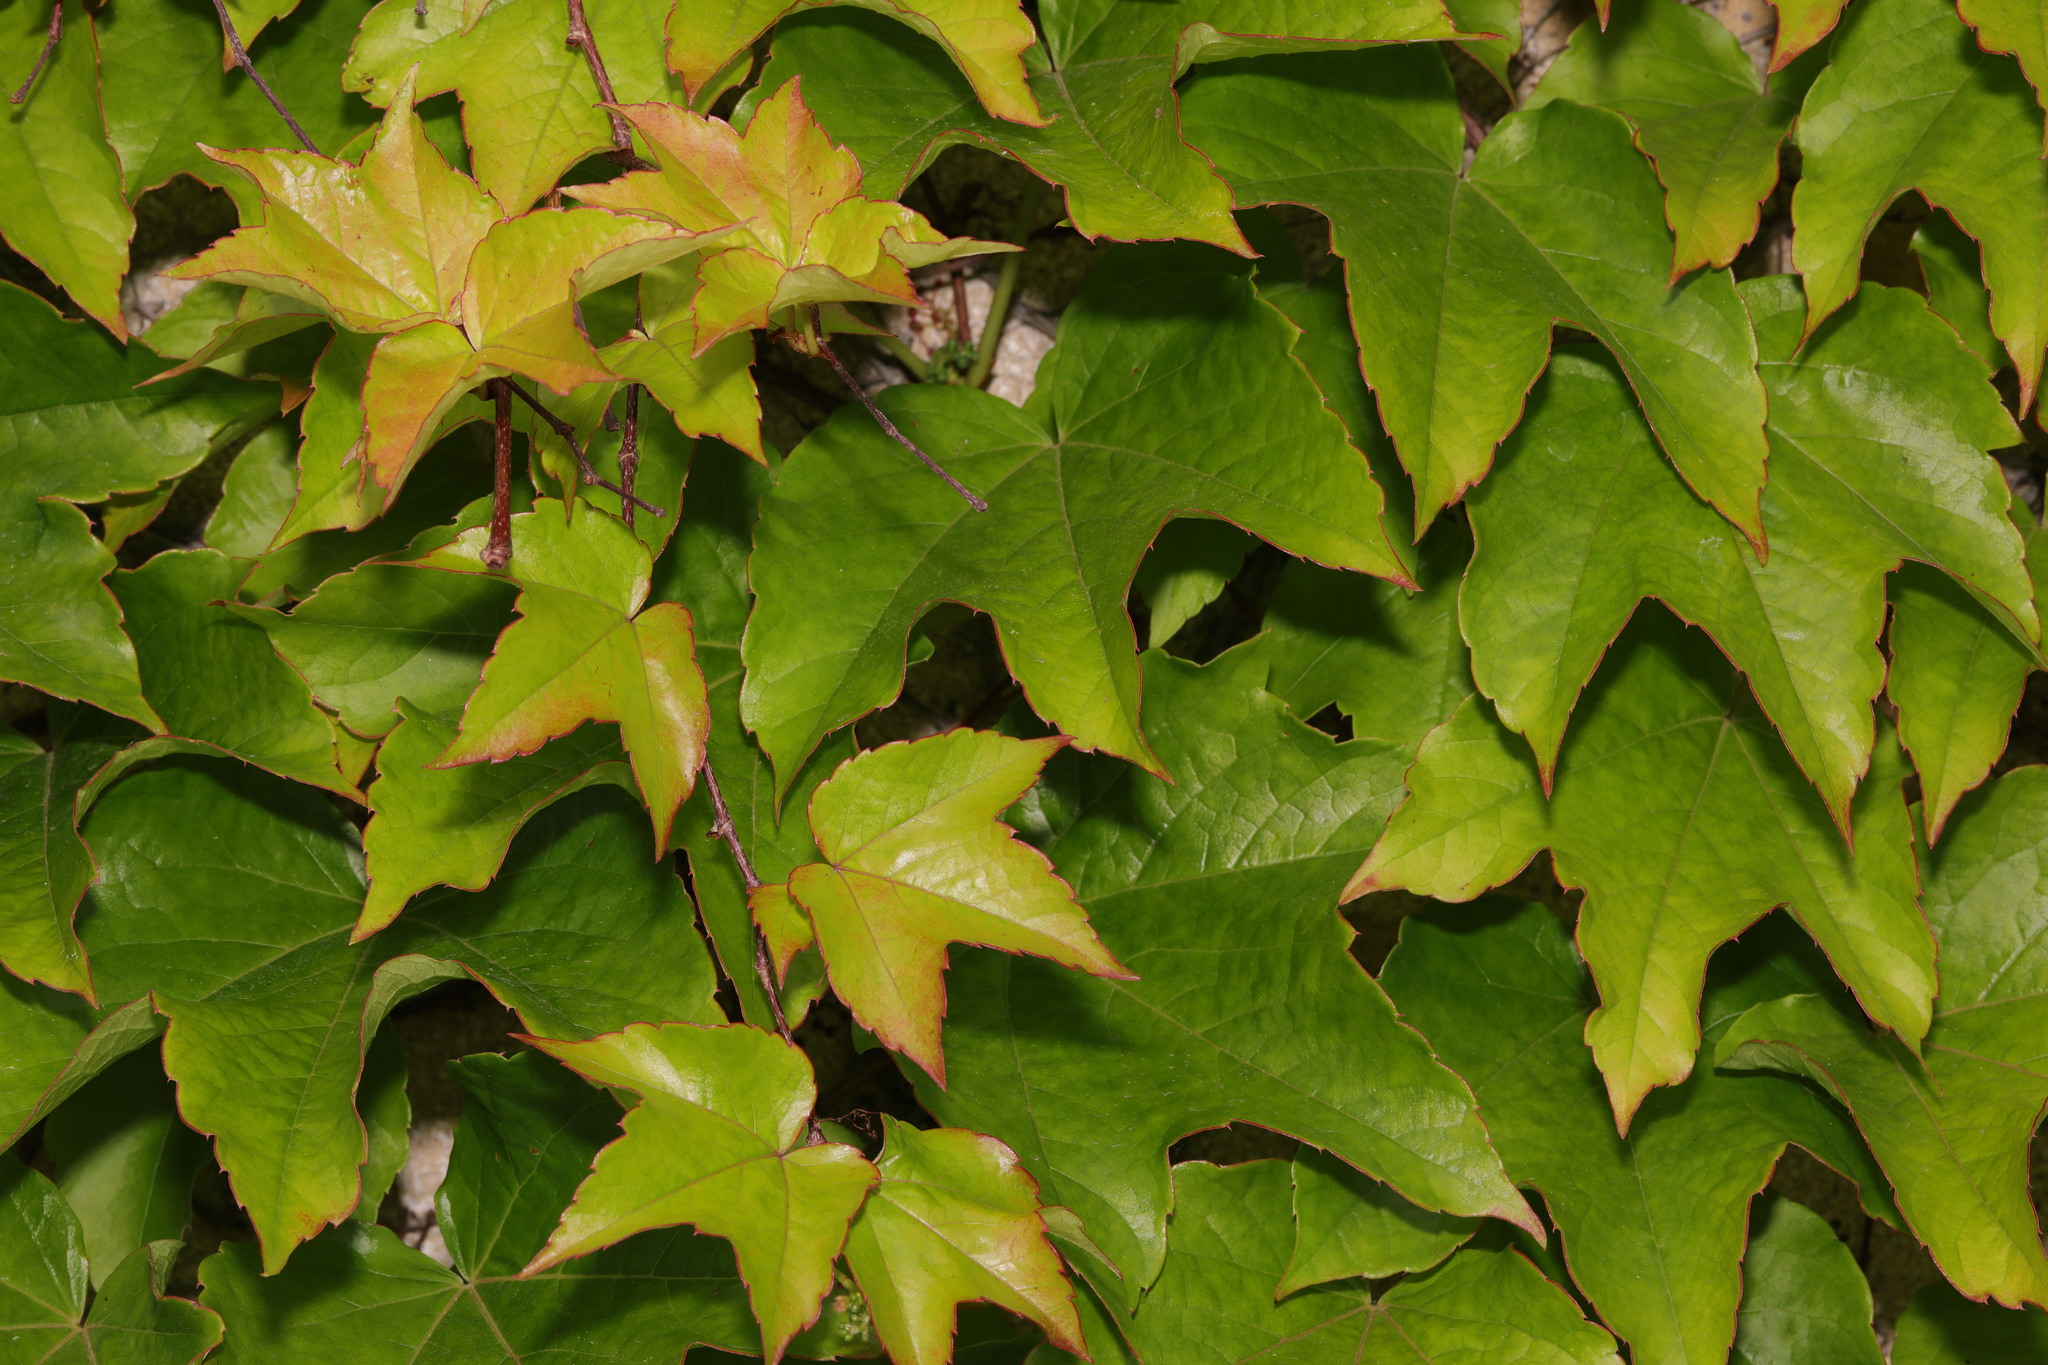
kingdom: Plantae
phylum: Tracheophyta
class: Magnoliopsida
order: Vitales
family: Vitaceae
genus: Parthenocissus
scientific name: Parthenocissus tricuspidata
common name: Boston ivy
